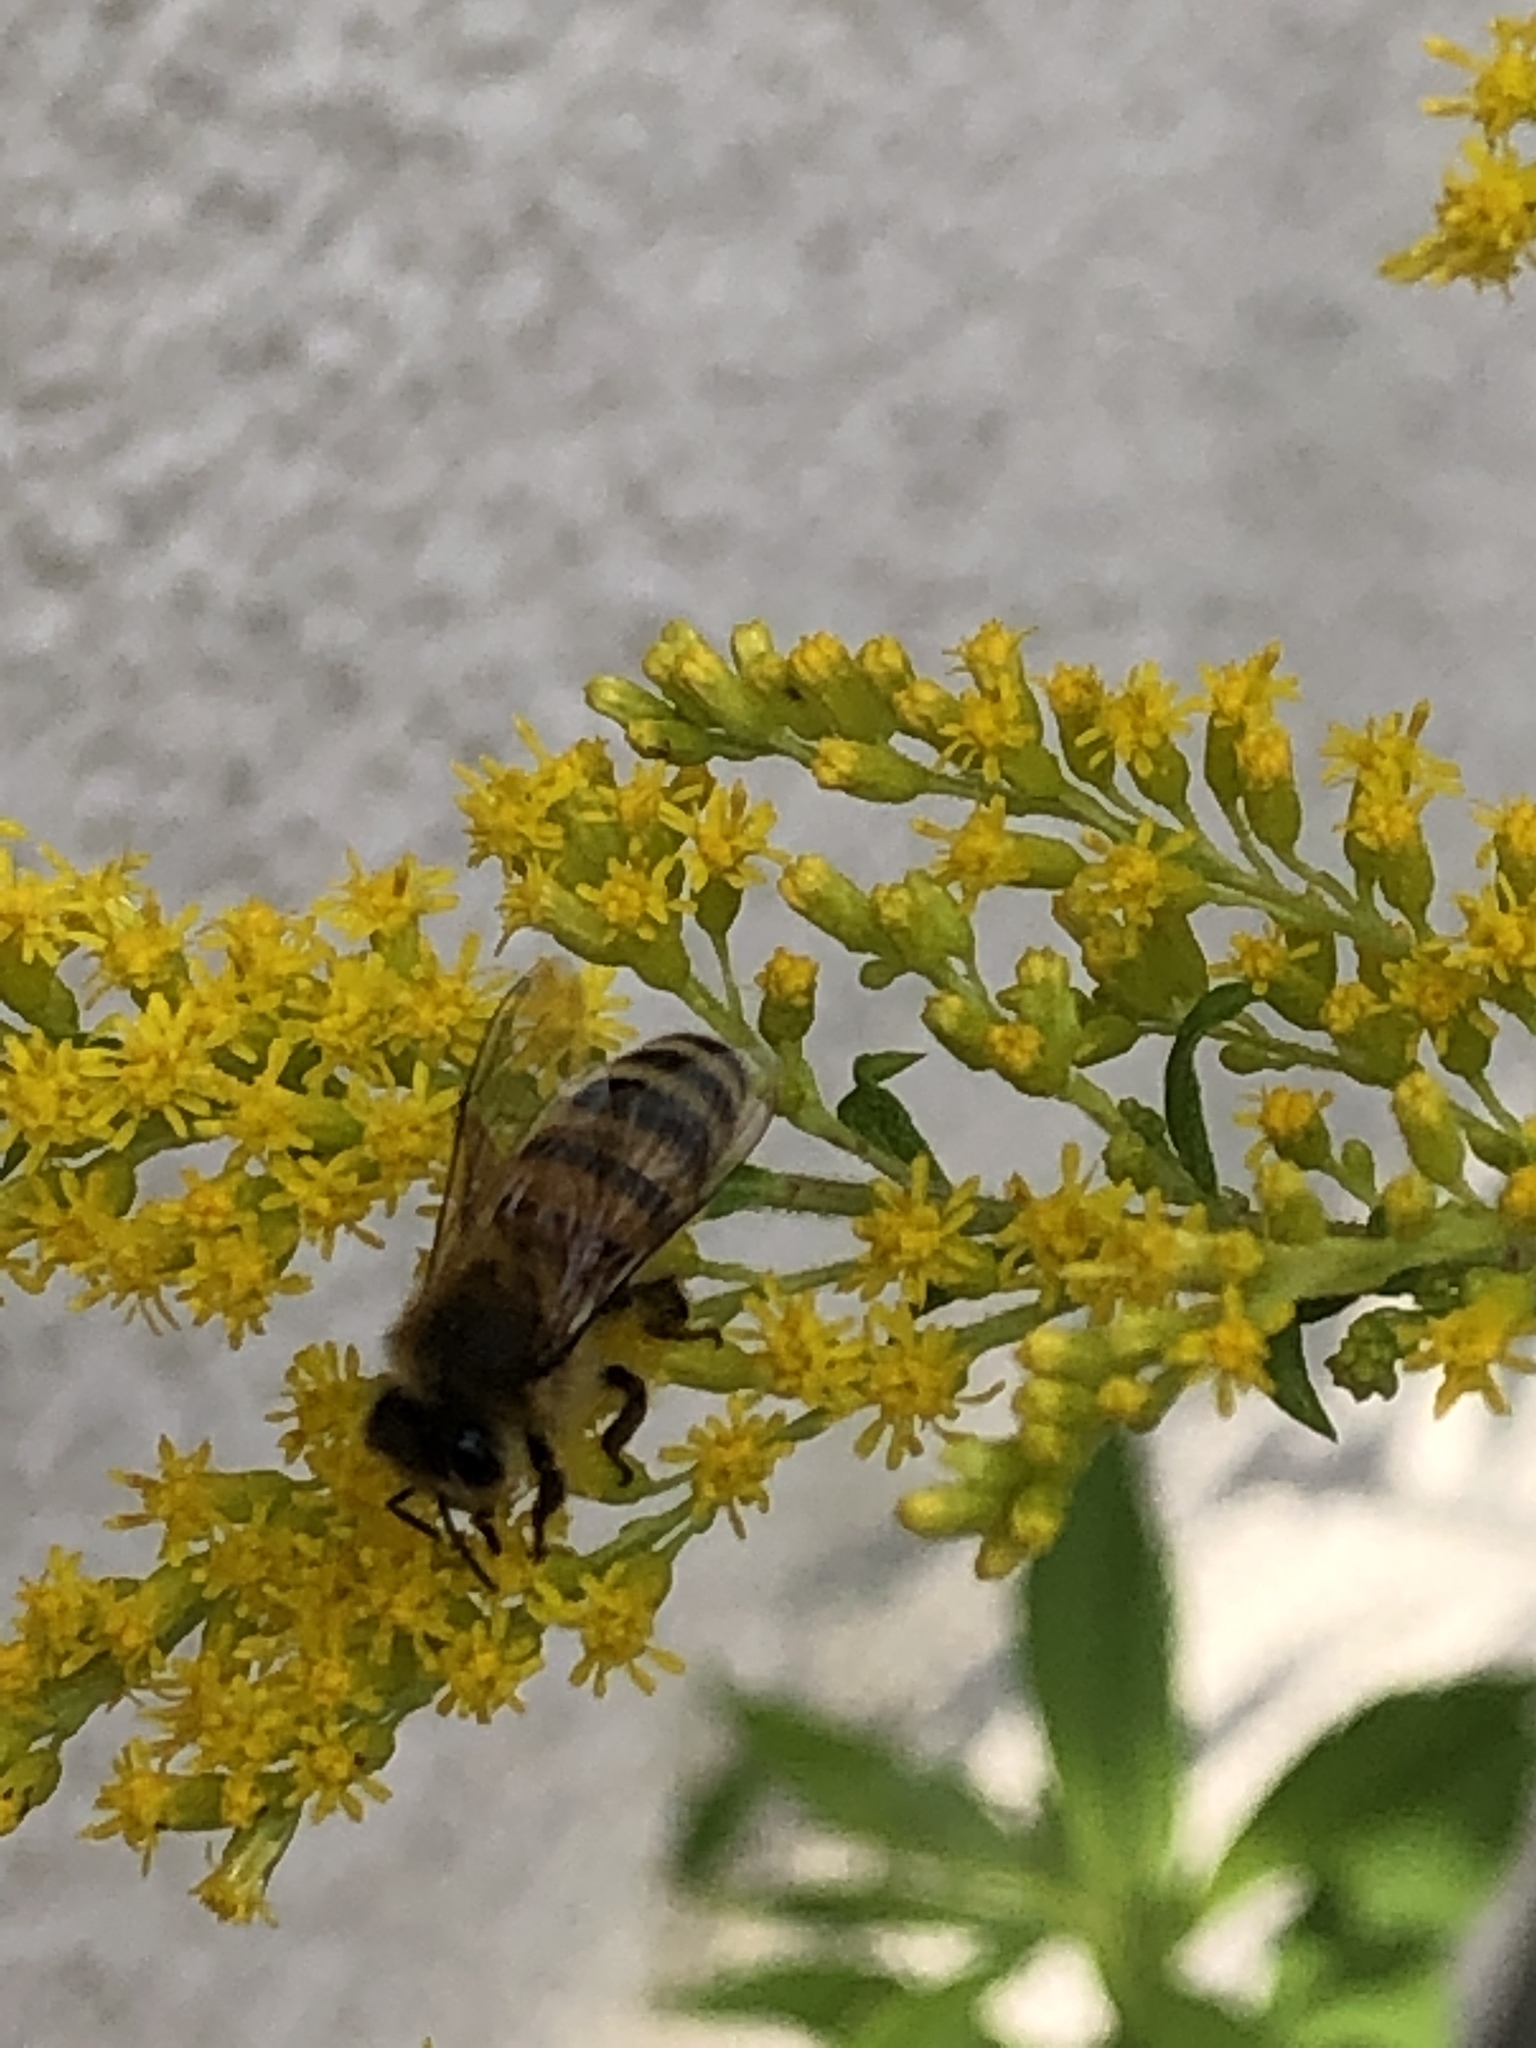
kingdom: Animalia
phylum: Arthropoda
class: Insecta
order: Hymenoptera
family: Apidae
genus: Apis
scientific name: Apis mellifera
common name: Honey bee
